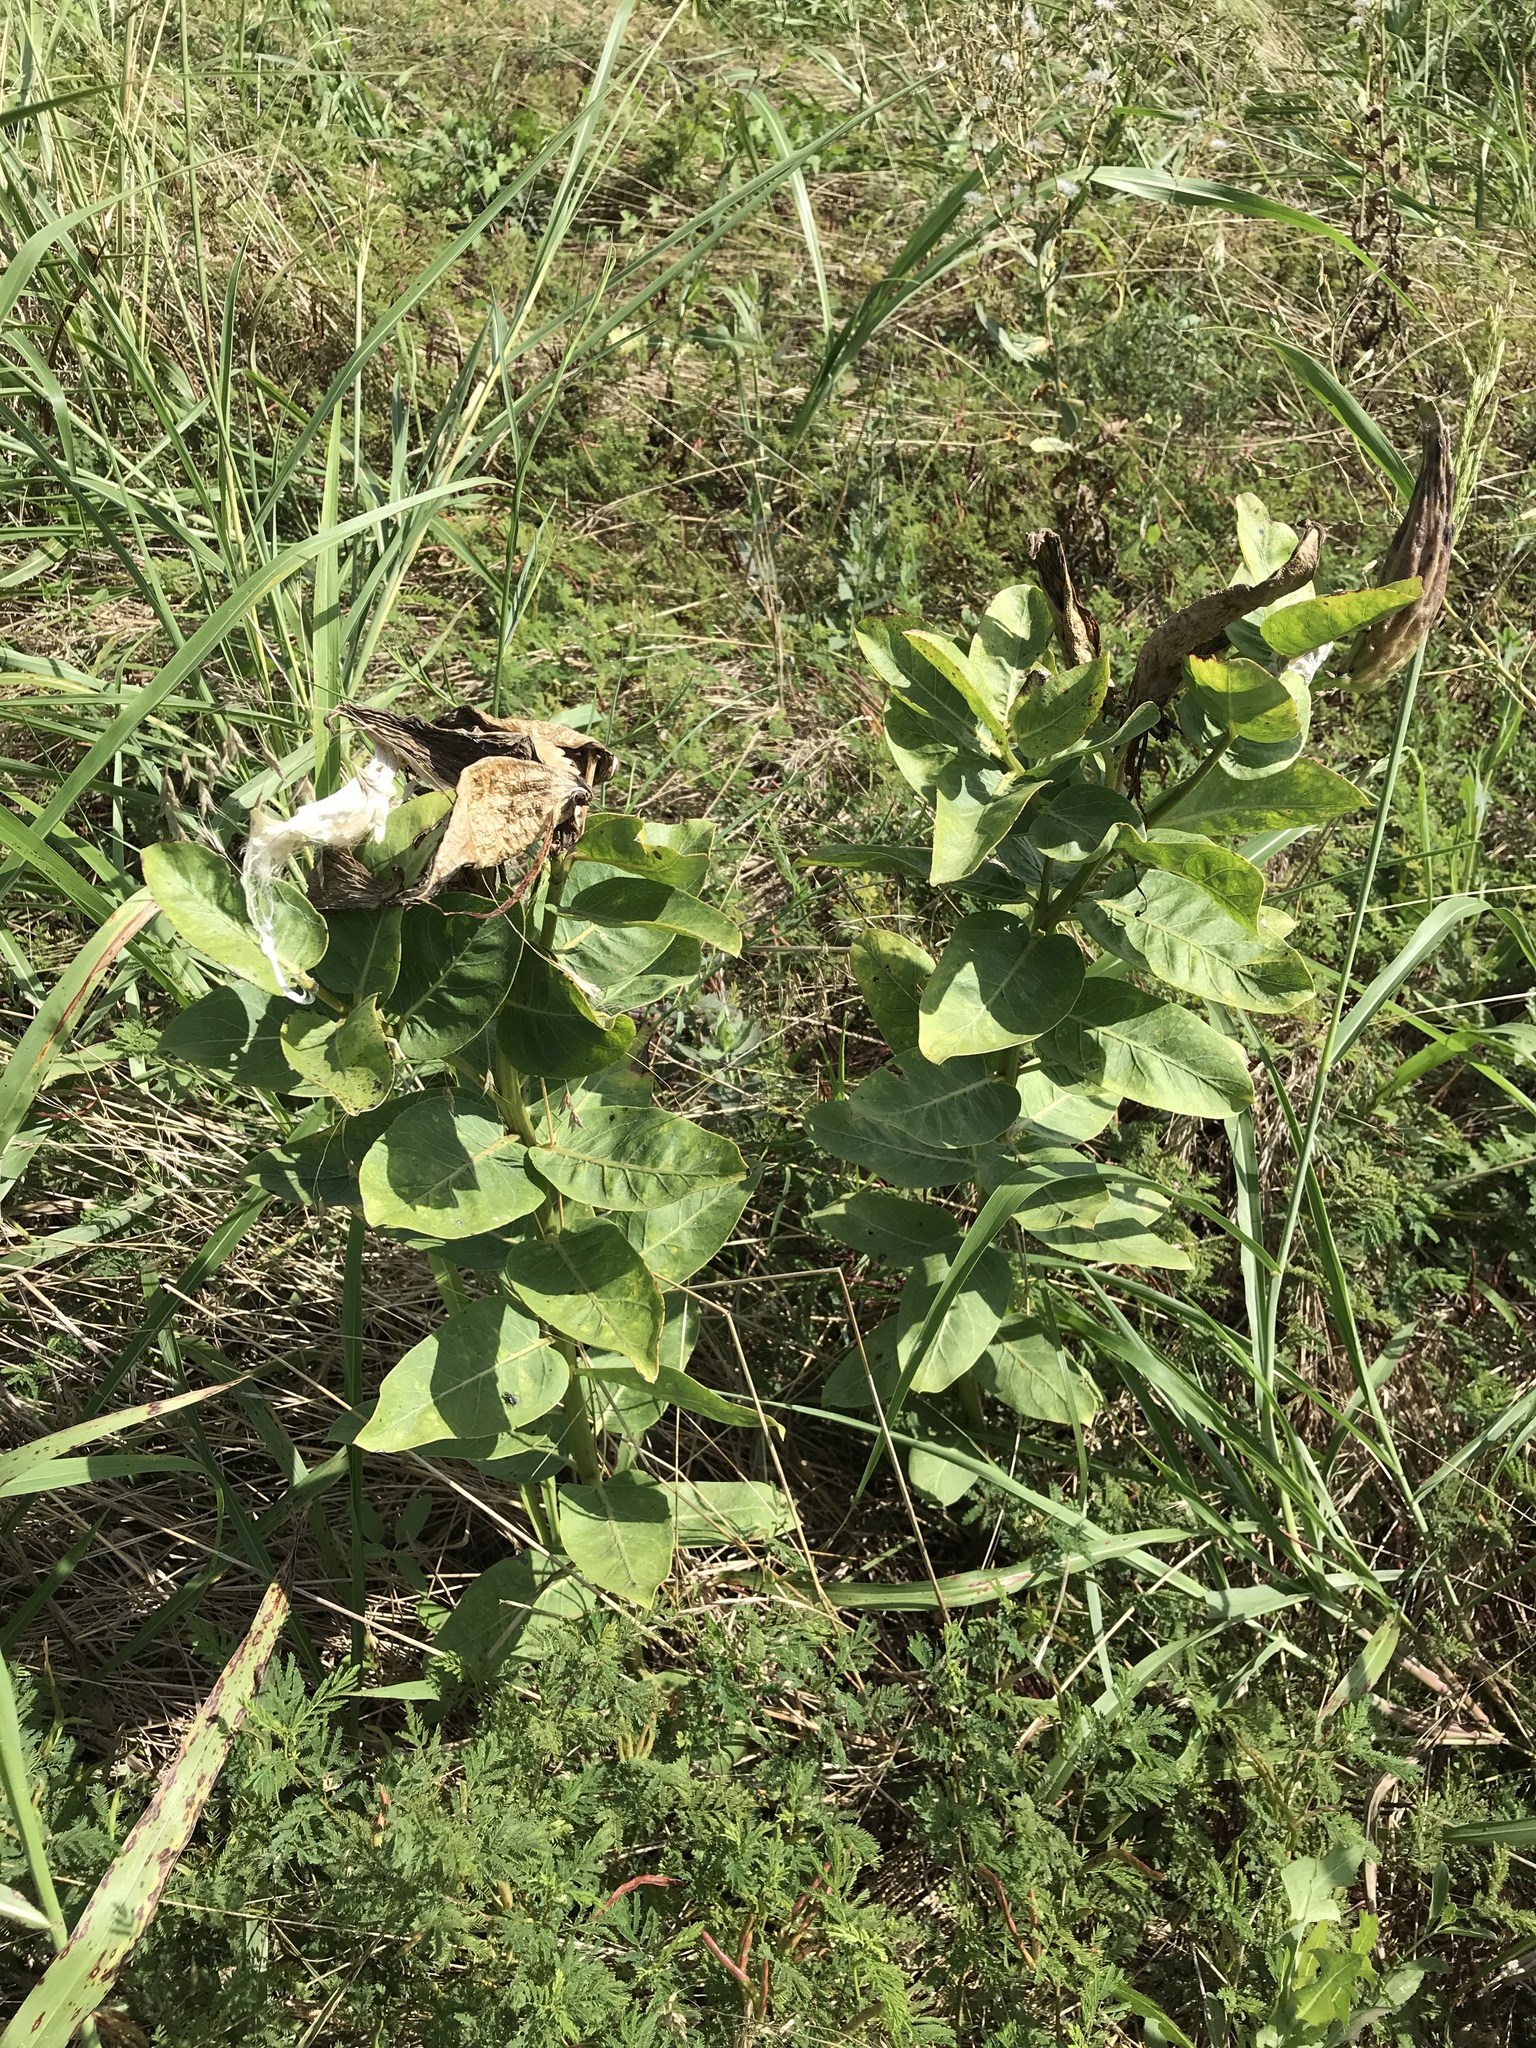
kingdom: Plantae
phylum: Tracheophyta
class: Magnoliopsida
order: Gentianales
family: Apocynaceae
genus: Asclepias
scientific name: Asclepias viridis
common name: Antelope-horns
